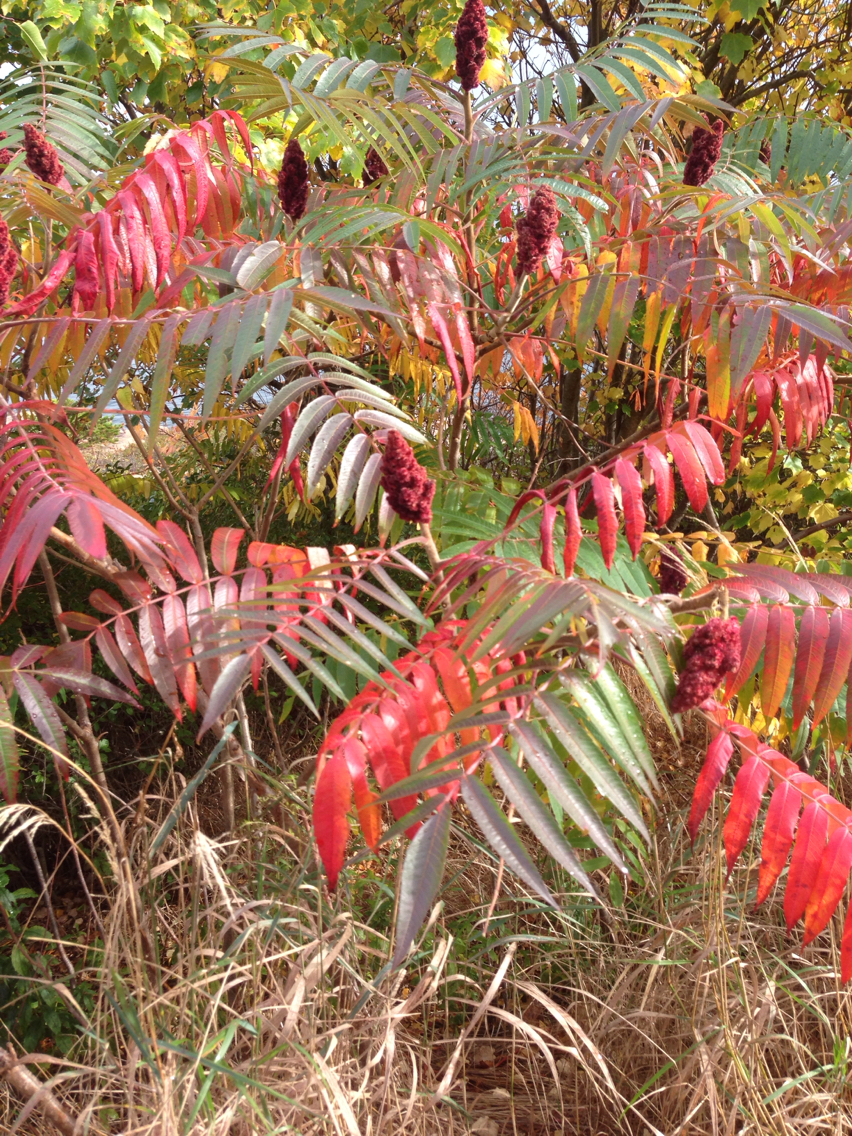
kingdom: Plantae
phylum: Tracheophyta
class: Magnoliopsida
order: Sapindales
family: Anacardiaceae
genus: Rhus
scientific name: Rhus typhina
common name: Staghorn sumac
